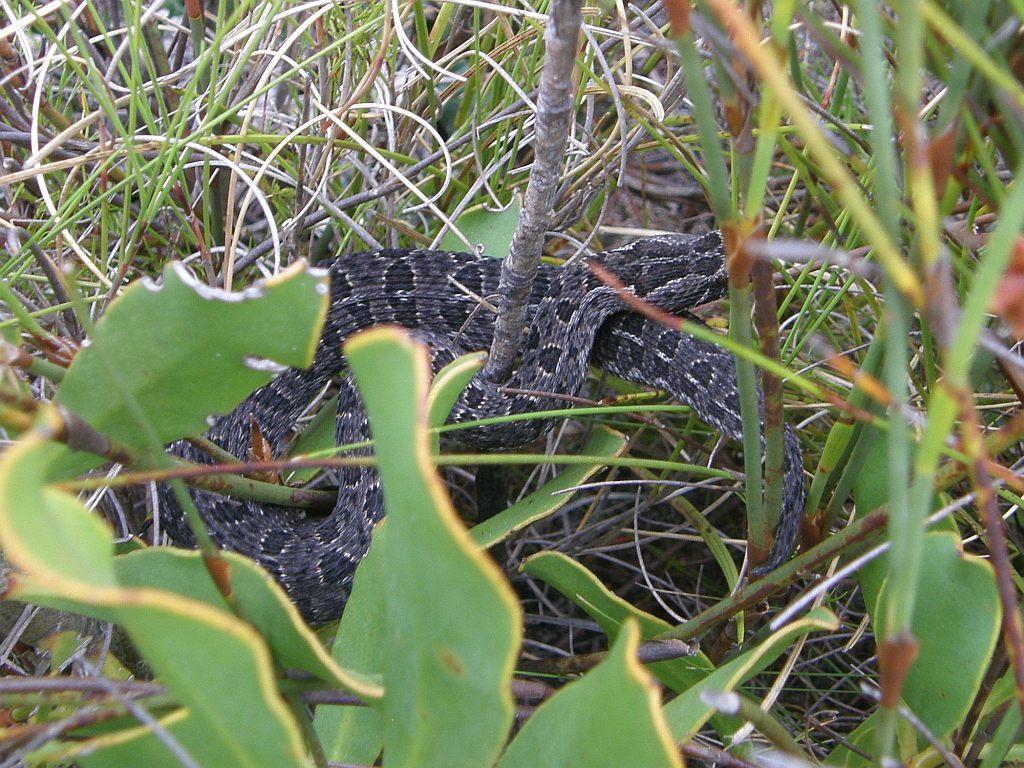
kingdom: Animalia
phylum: Chordata
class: Squamata
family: Viperidae
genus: Bitis
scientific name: Bitis atropos
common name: Mountain adder
